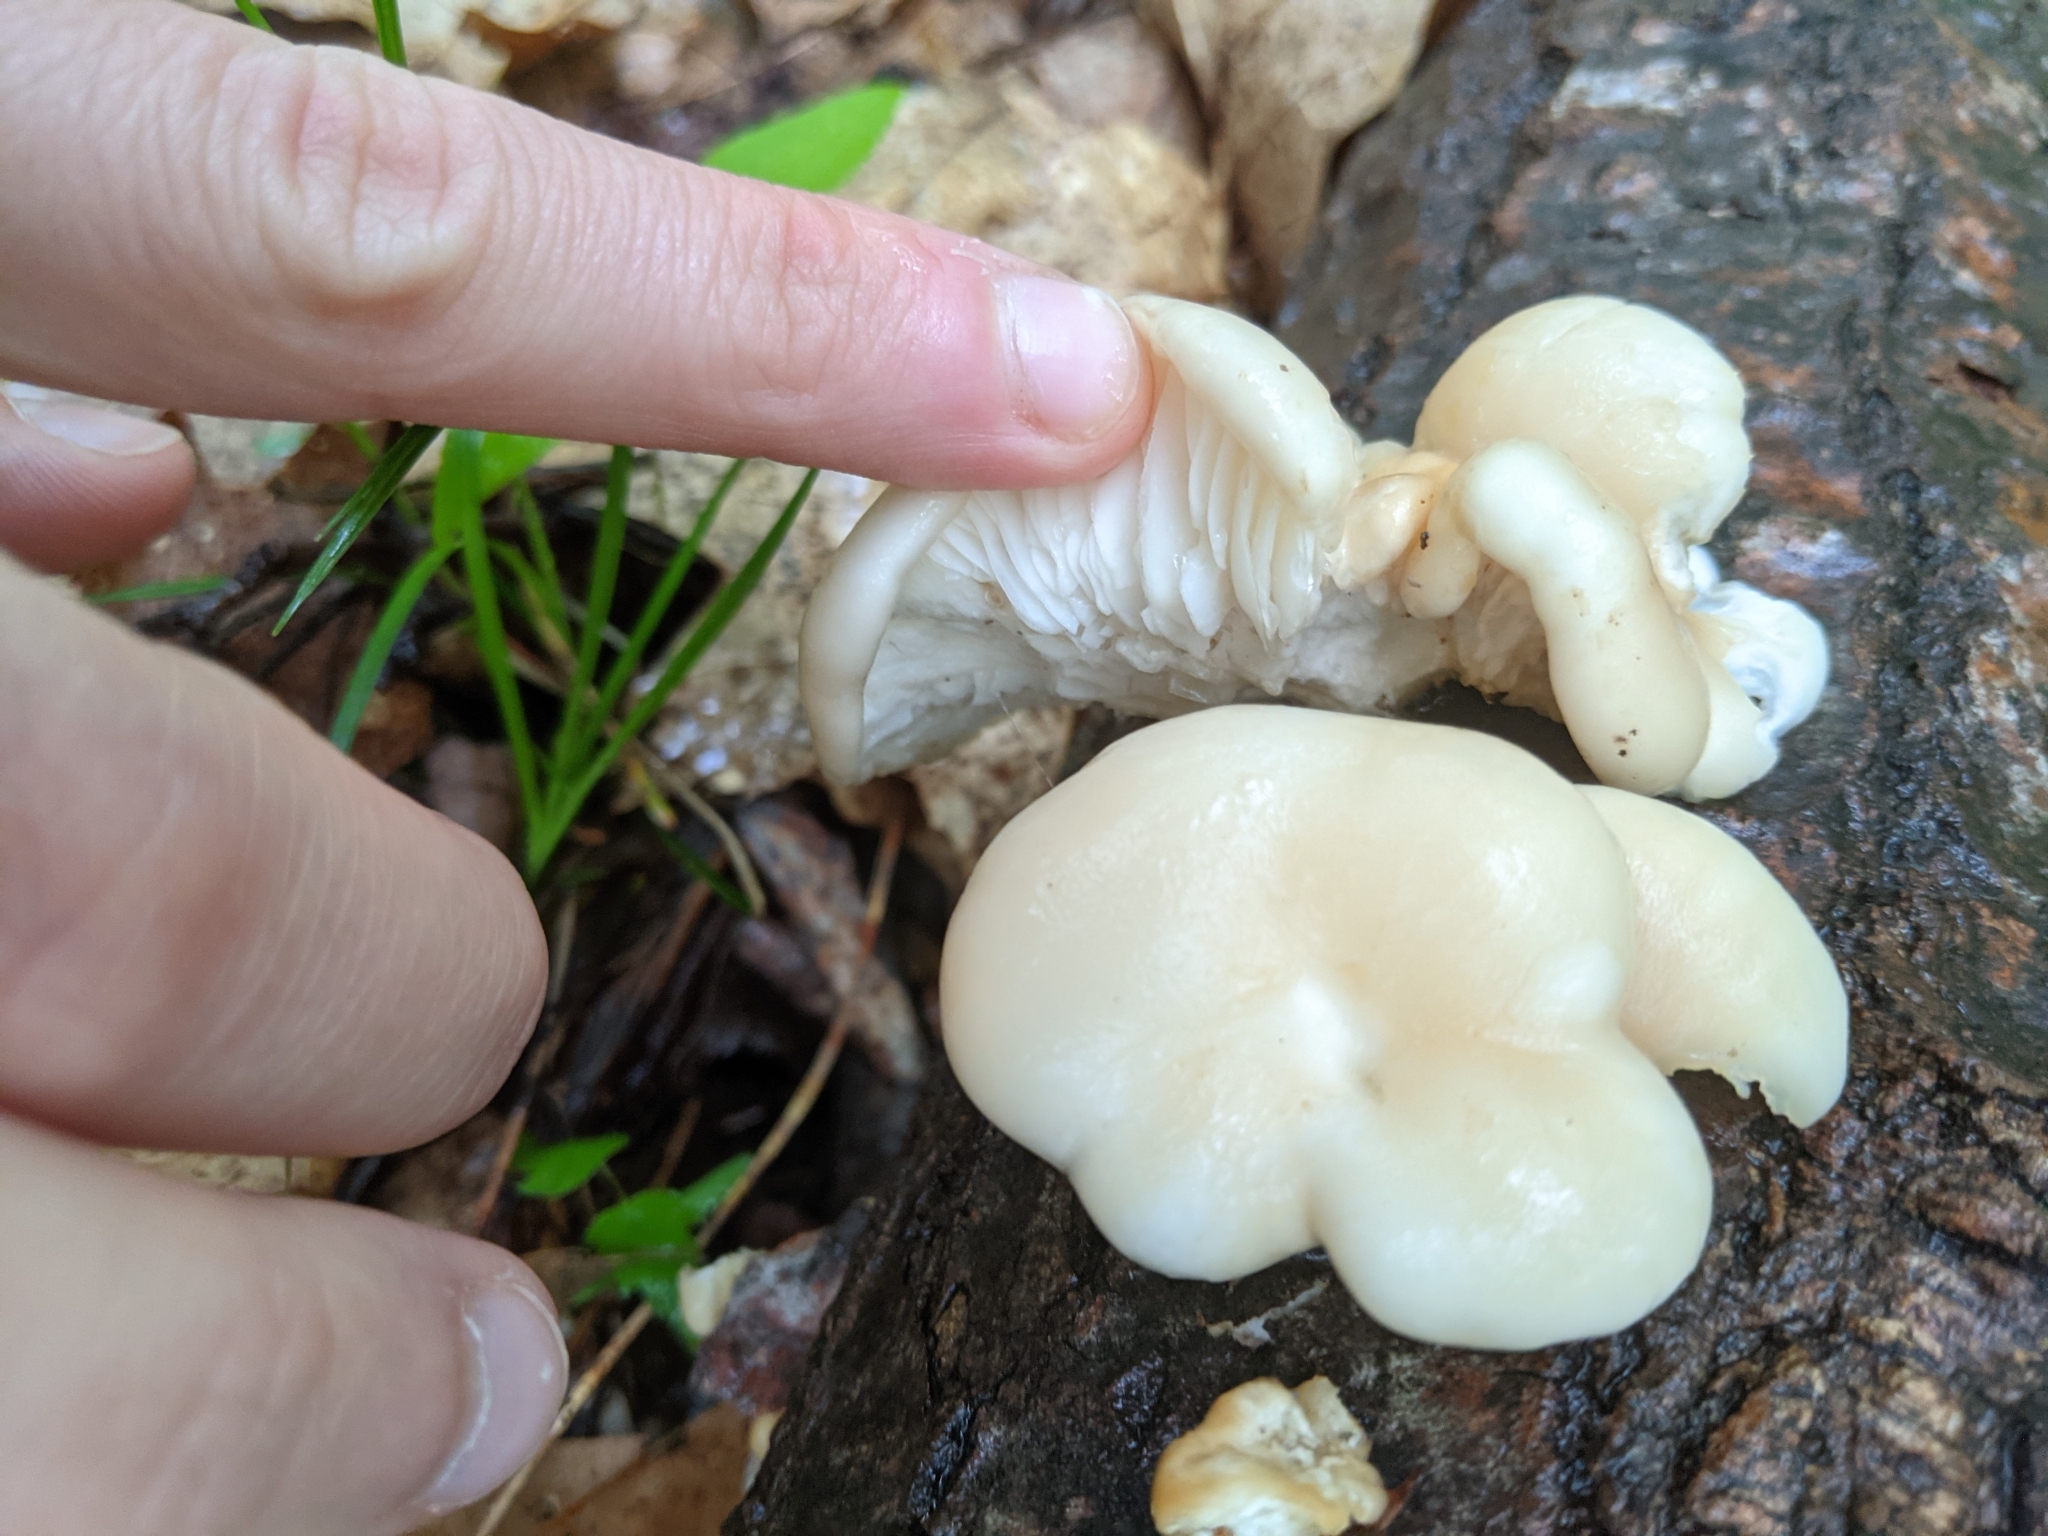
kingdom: Fungi
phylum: Basidiomycota
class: Agaricomycetes
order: Agaricales
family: Pleurotaceae
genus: Pleurotus
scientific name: Pleurotus ostreatus
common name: Oyster mushroom
